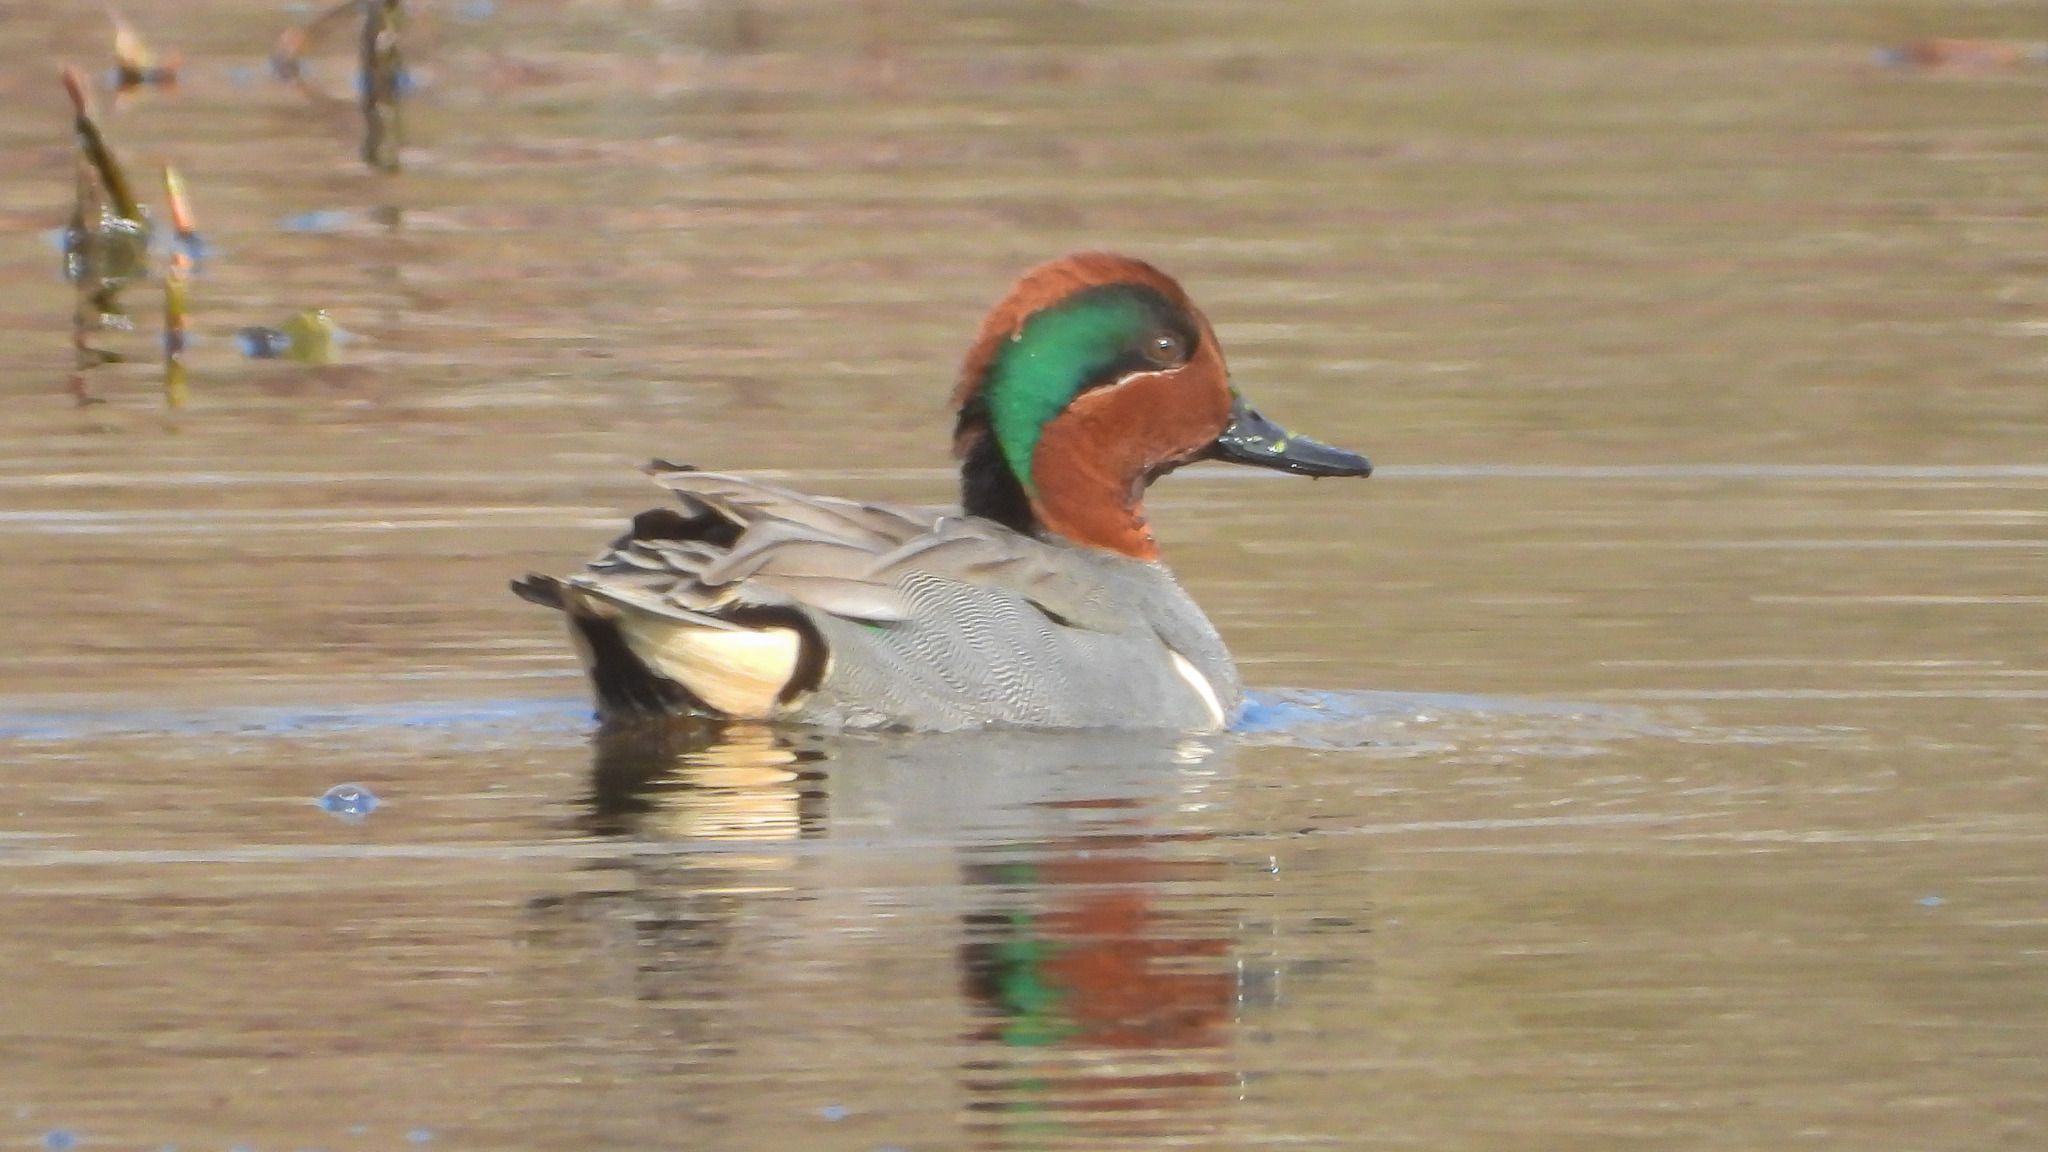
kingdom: Animalia
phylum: Chordata
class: Aves
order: Anseriformes
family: Anatidae
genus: Anas
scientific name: Anas crecca
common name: Eurasian teal
